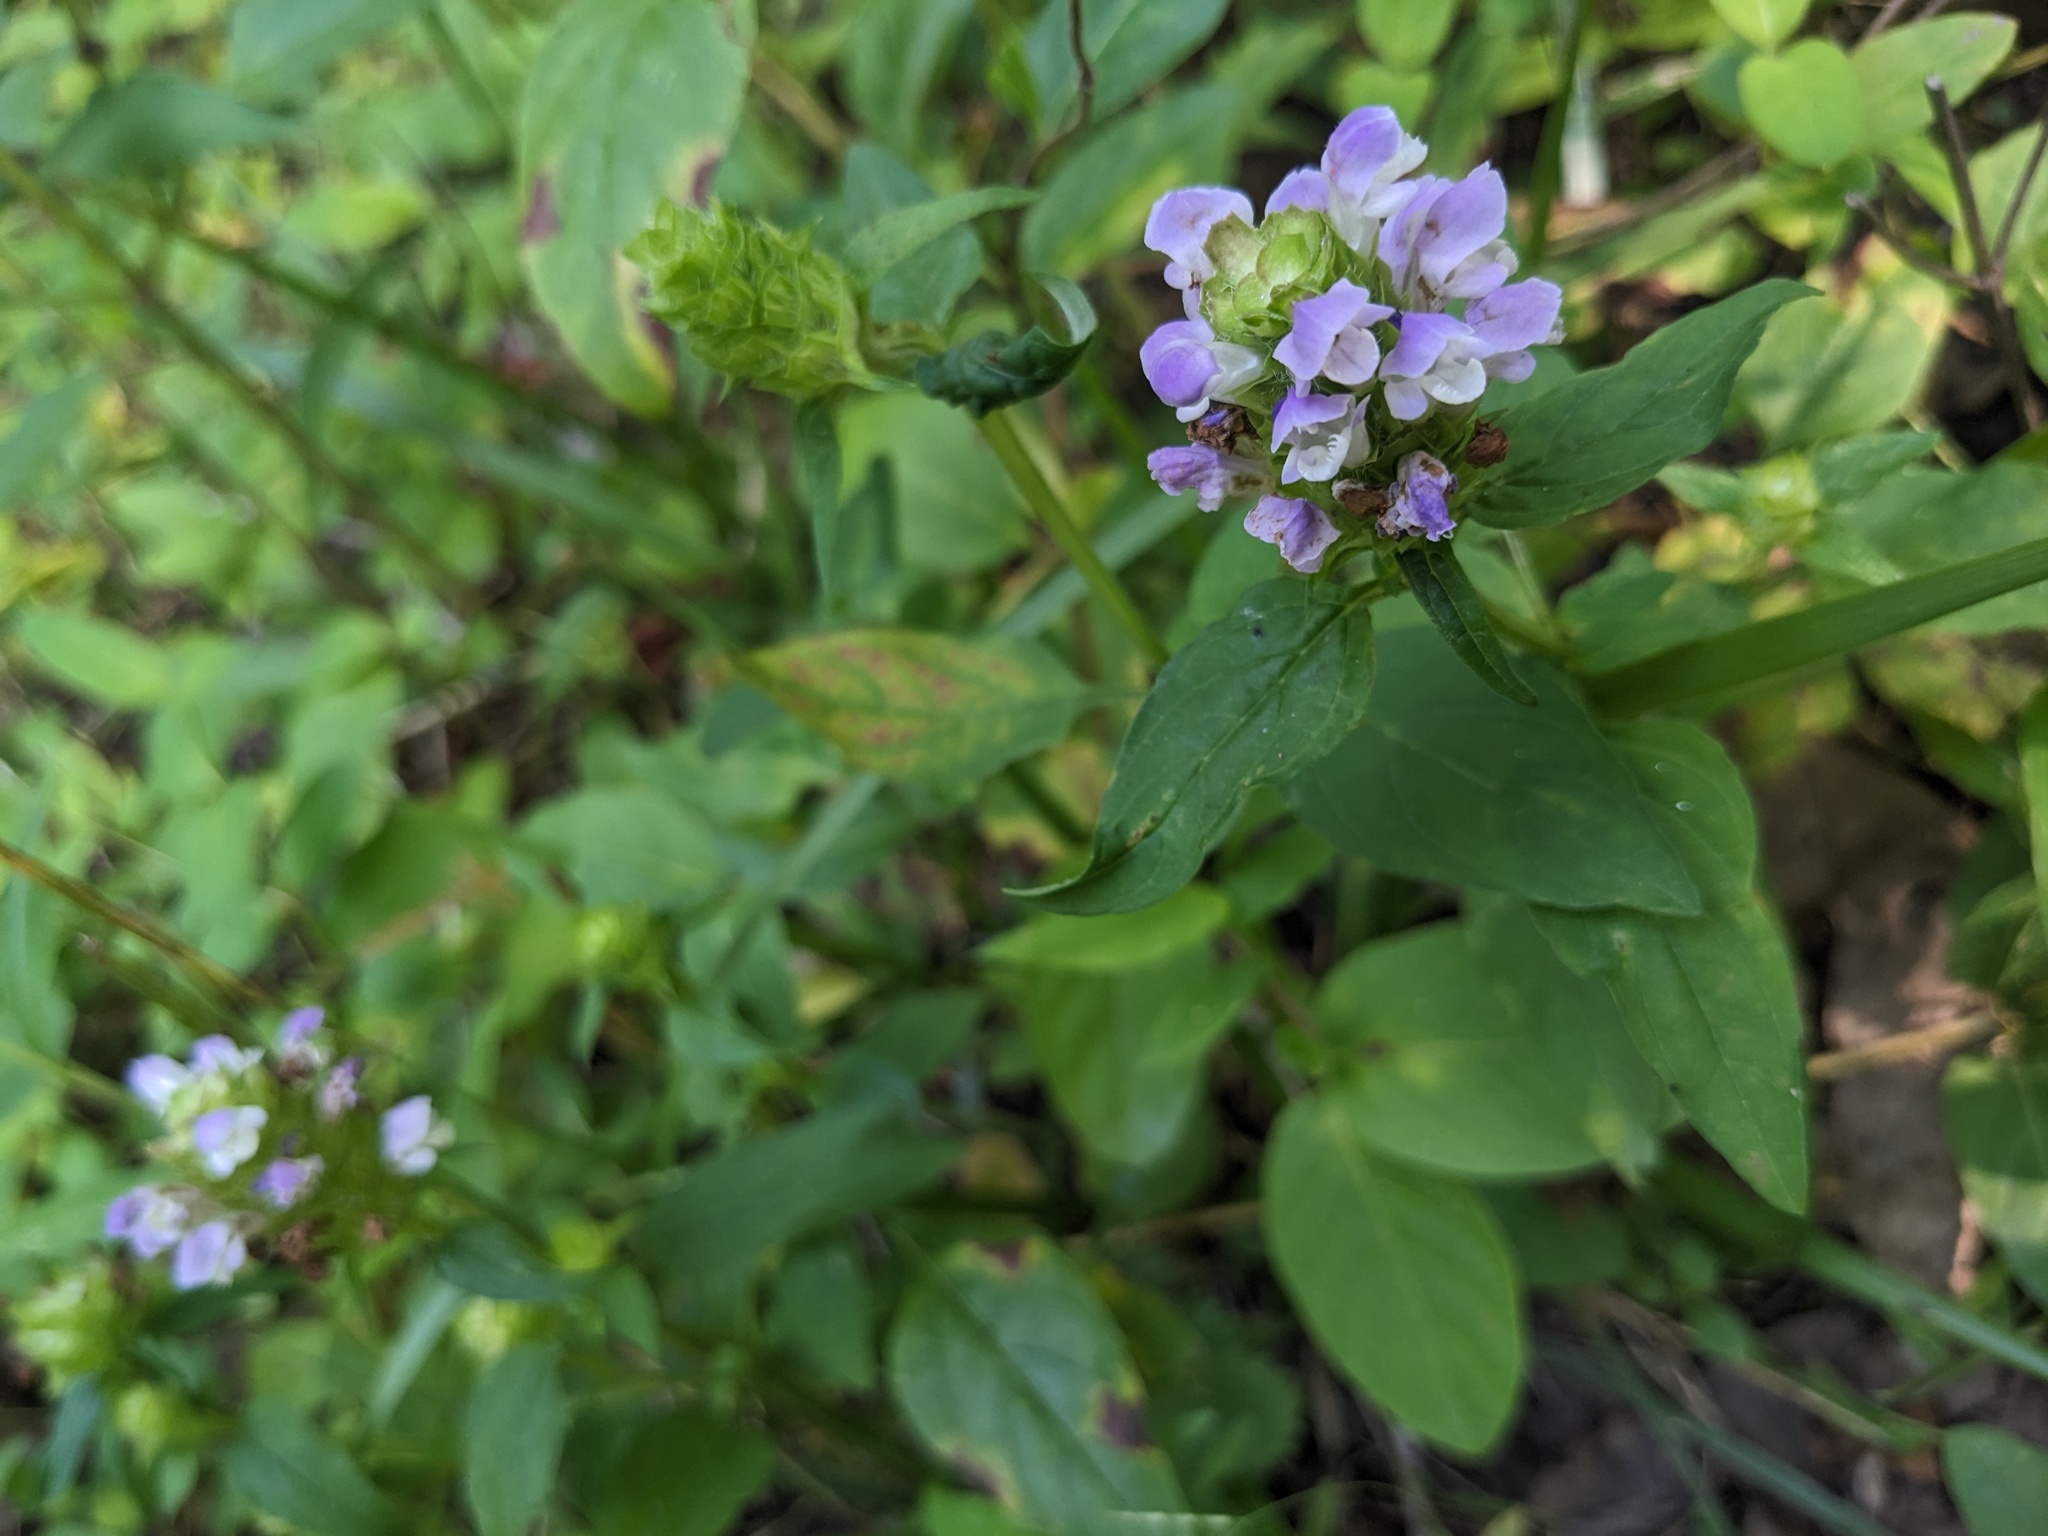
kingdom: Plantae
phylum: Tracheophyta
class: Magnoliopsida
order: Lamiales
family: Lamiaceae
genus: Prunella
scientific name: Prunella vulgaris
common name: Heal-all
